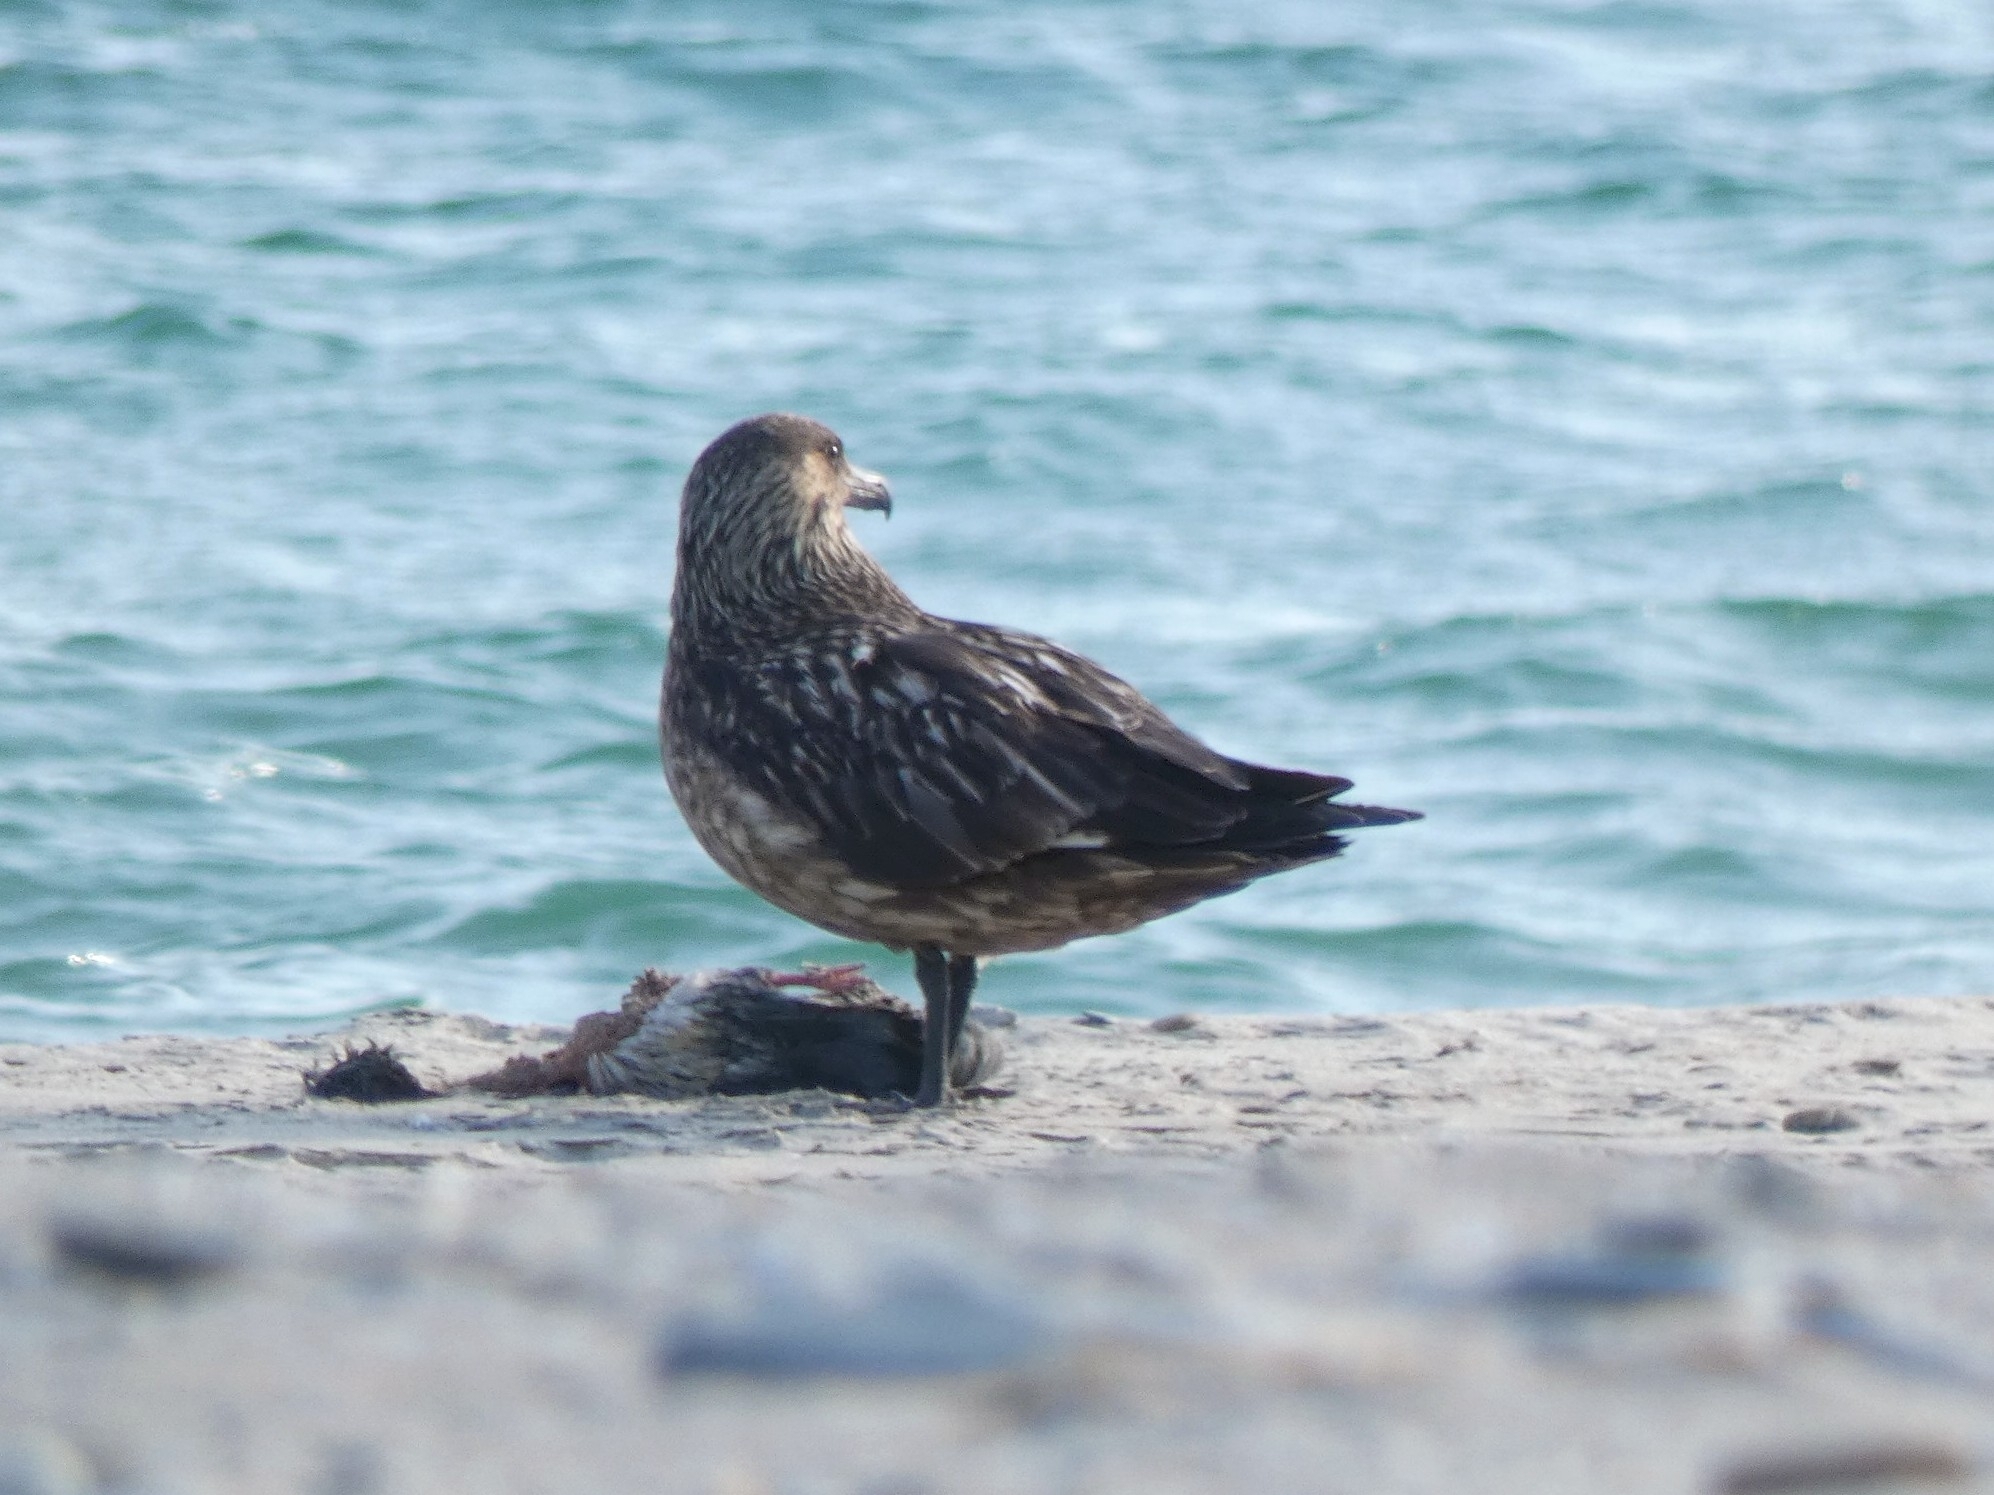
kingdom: Animalia
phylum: Chordata
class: Aves
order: Charadriiformes
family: Stercorariidae
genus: Stercorarius
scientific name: Stercorarius skua
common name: Great skua
